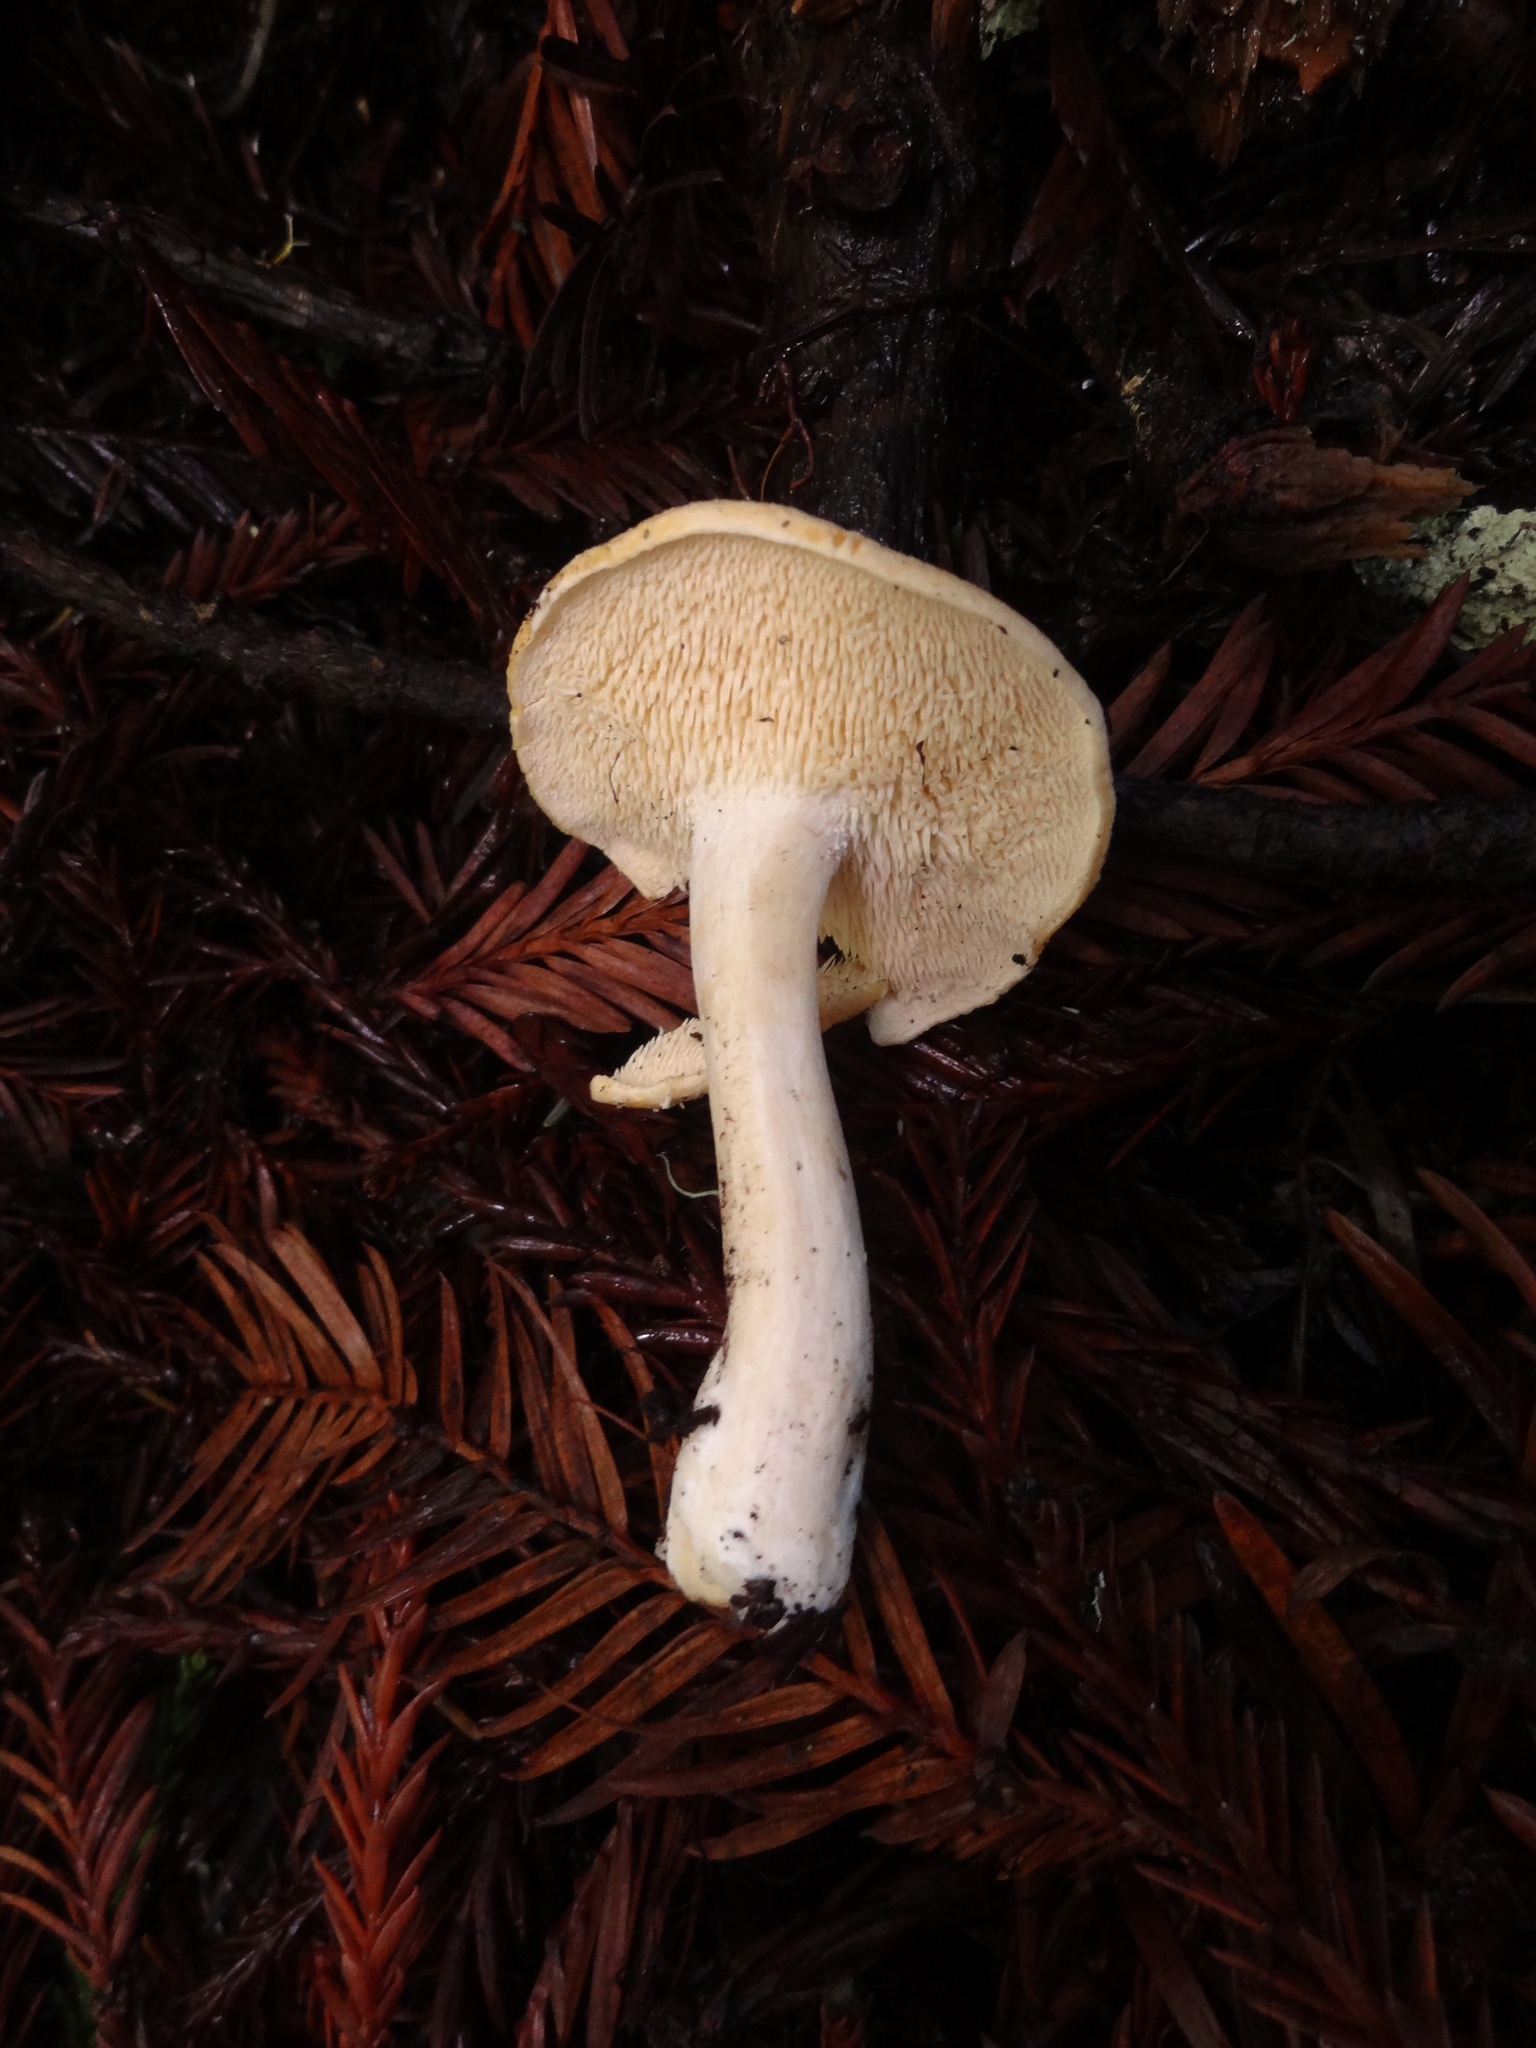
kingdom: Fungi
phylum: Basidiomycota
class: Agaricomycetes
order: Cantharellales
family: Hydnaceae
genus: Hydnum
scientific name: Hydnum oregonense
